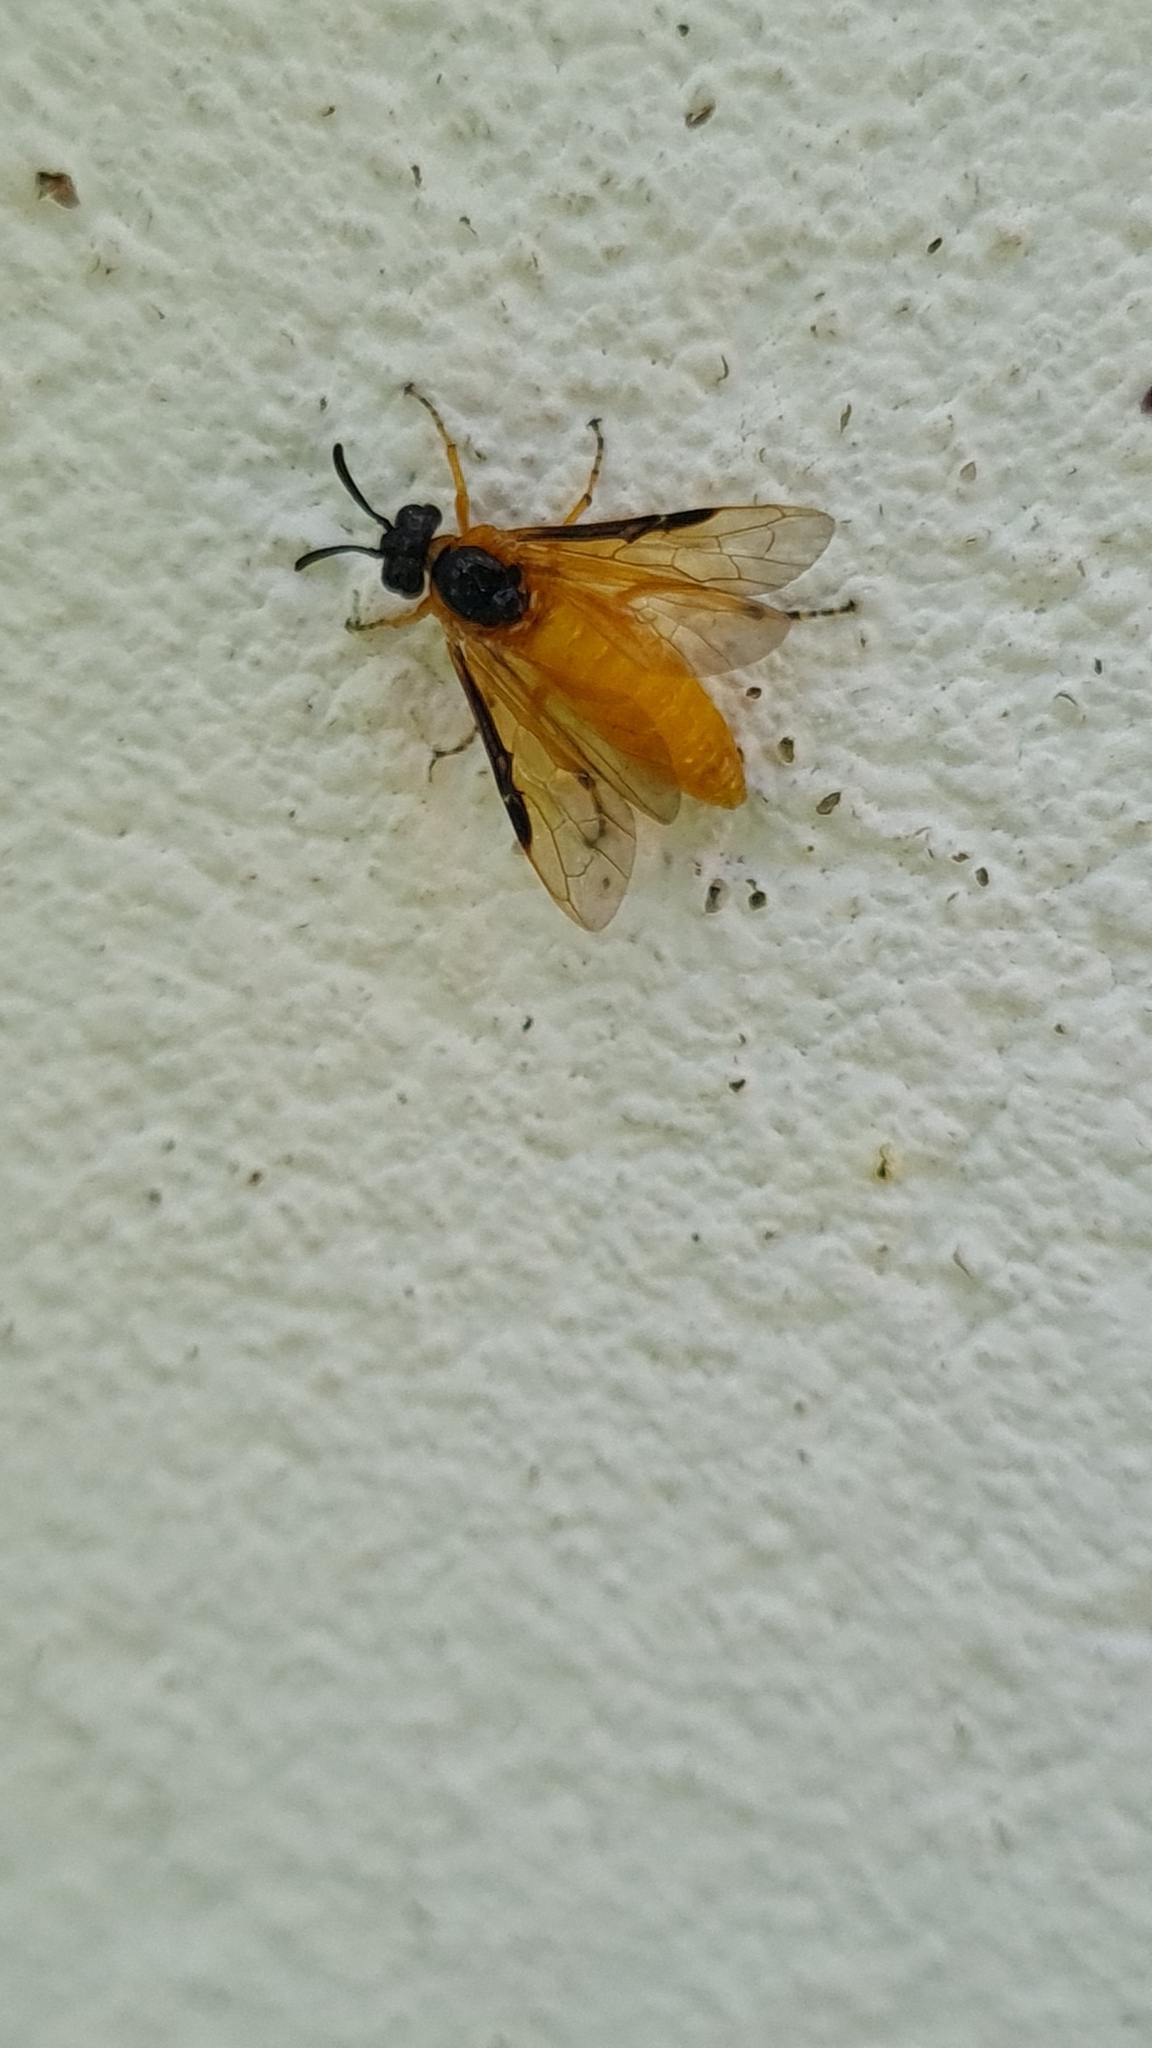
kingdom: Animalia
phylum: Arthropoda
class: Insecta
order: Hymenoptera
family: Argidae
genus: Arge
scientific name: Arge ochropus
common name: Argid sawfly
